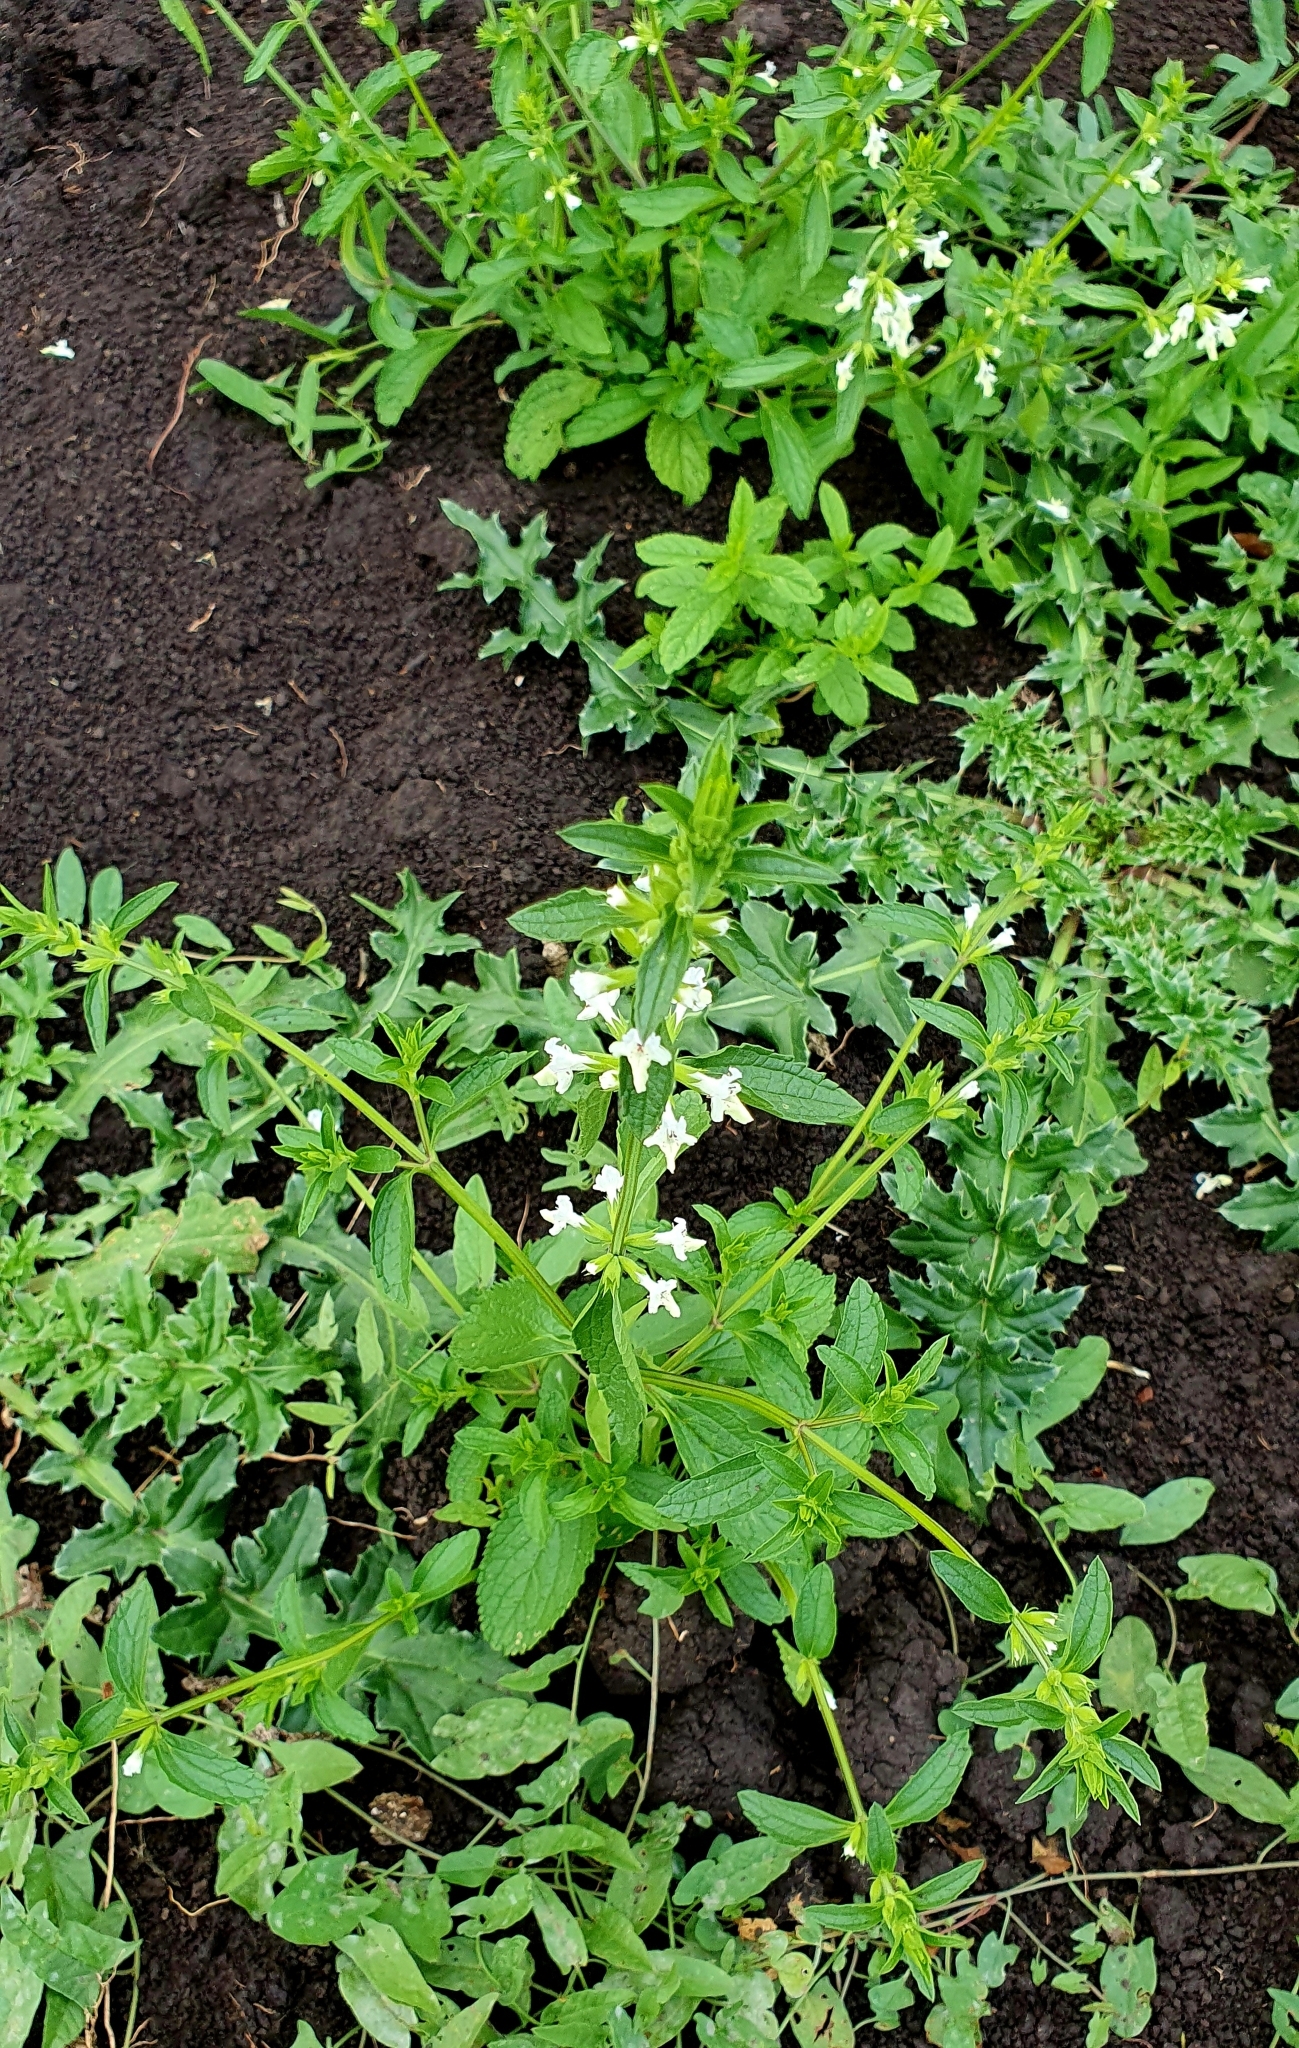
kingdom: Plantae
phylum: Tracheophyta
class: Magnoliopsida
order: Lamiales
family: Lamiaceae
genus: Stachys
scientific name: Stachys annua
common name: Annual yellow-woundwort
